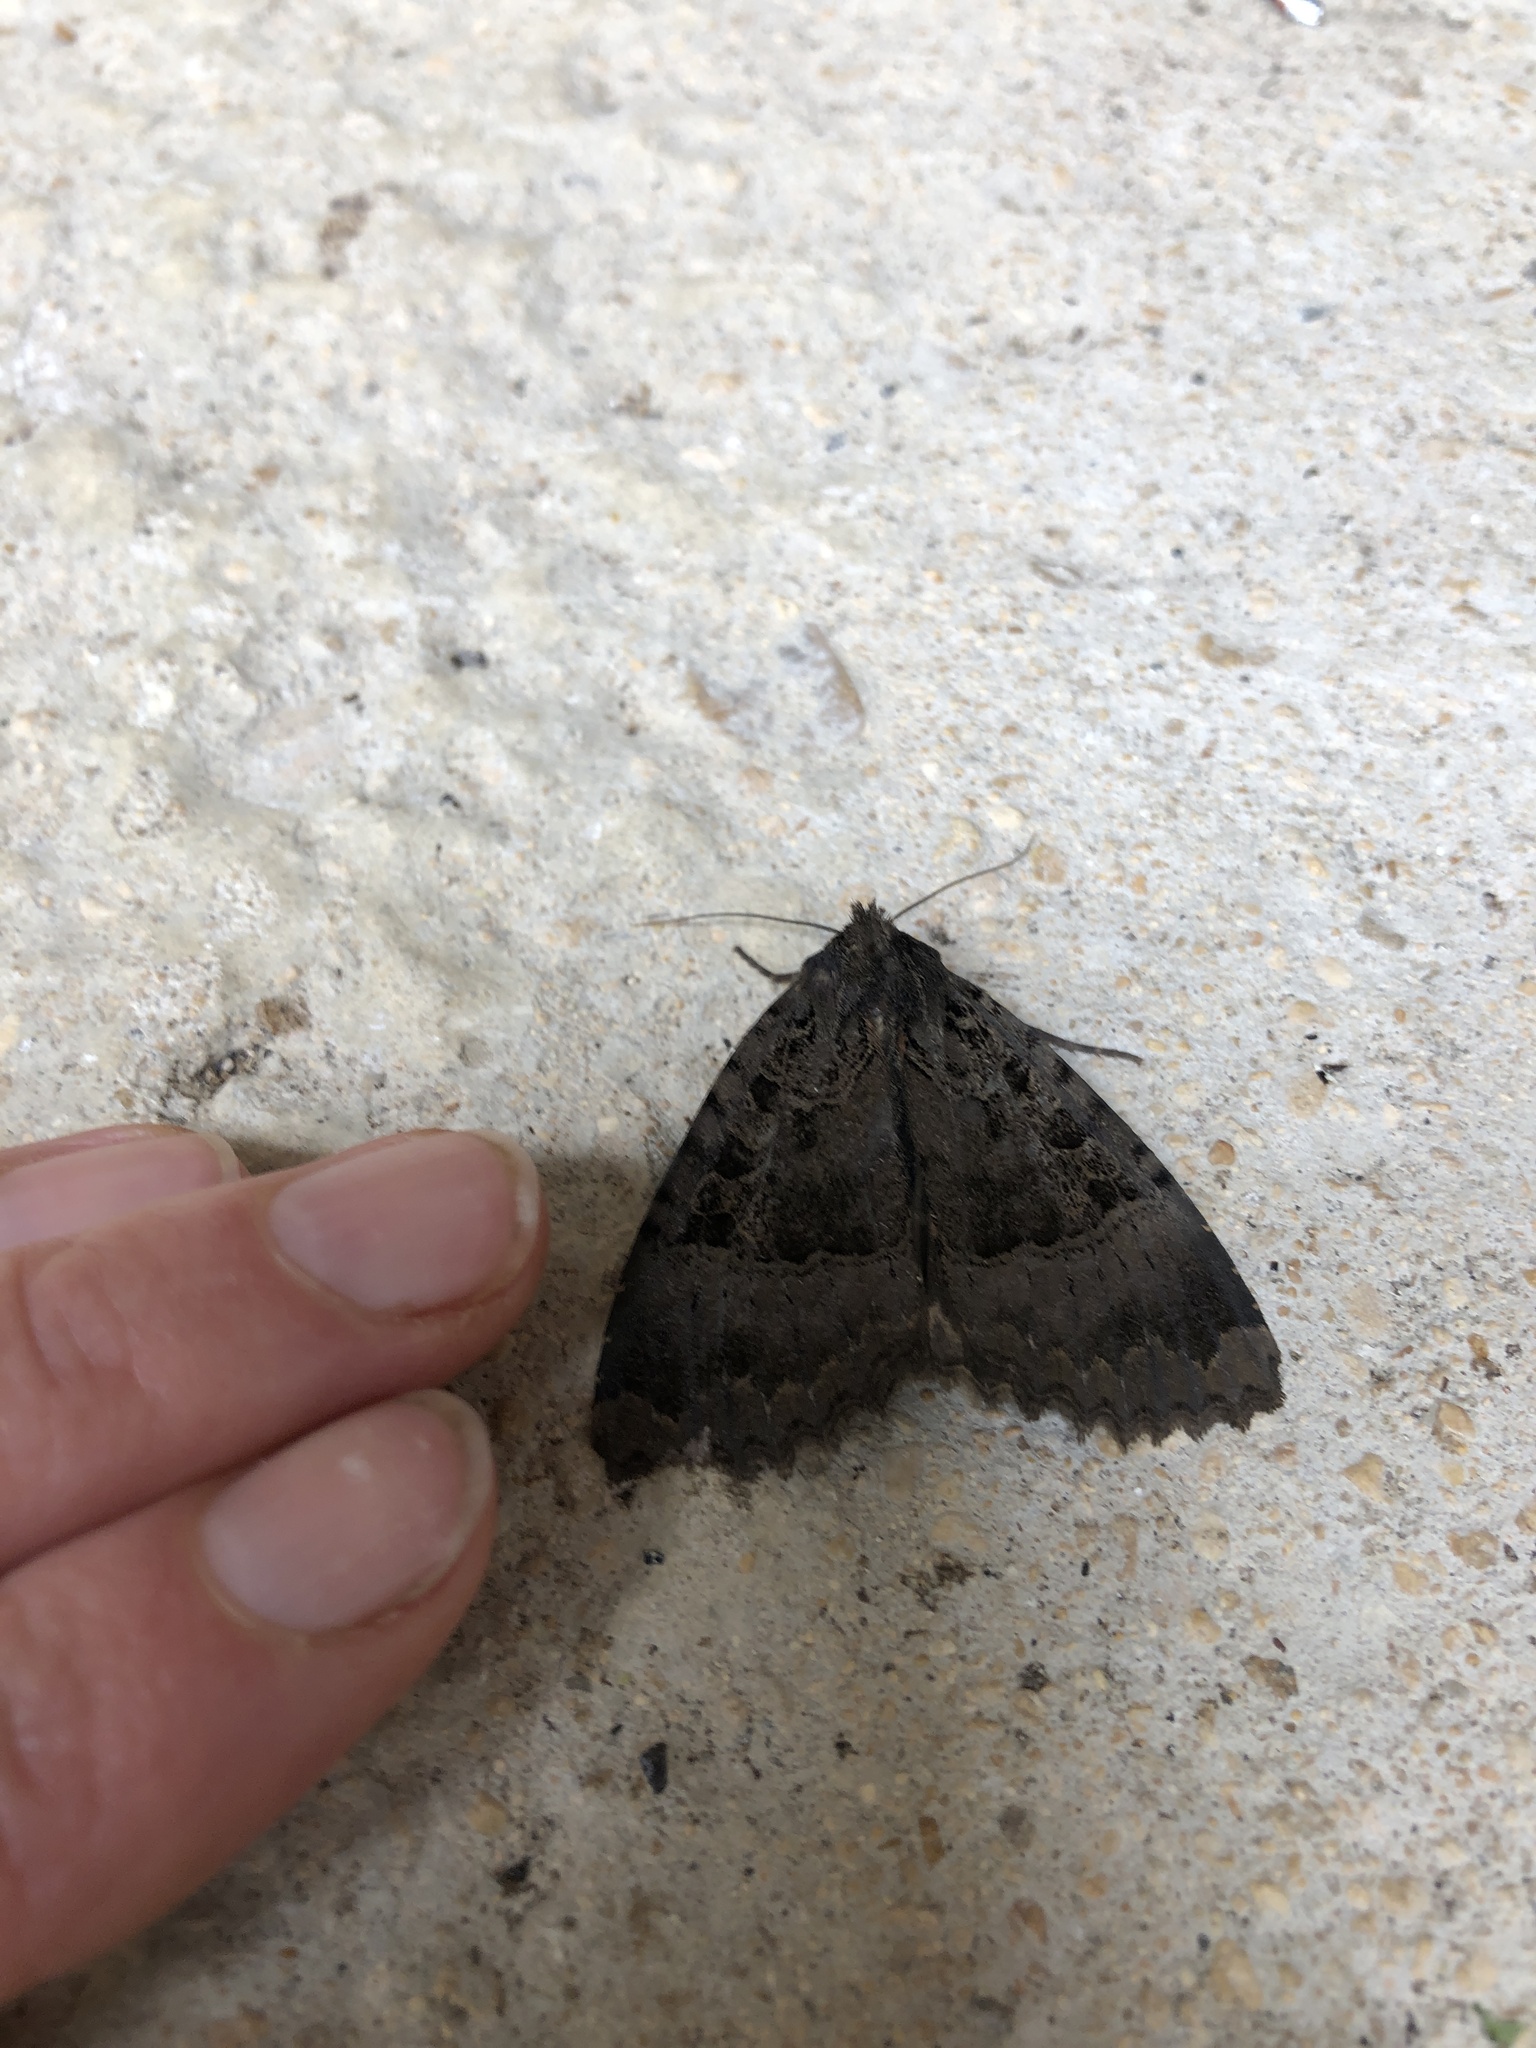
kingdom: Animalia
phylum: Arthropoda
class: Insecta
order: Lepidoptera
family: Noctuidae
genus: Mormo
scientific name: Mormo maura
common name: Old lady
